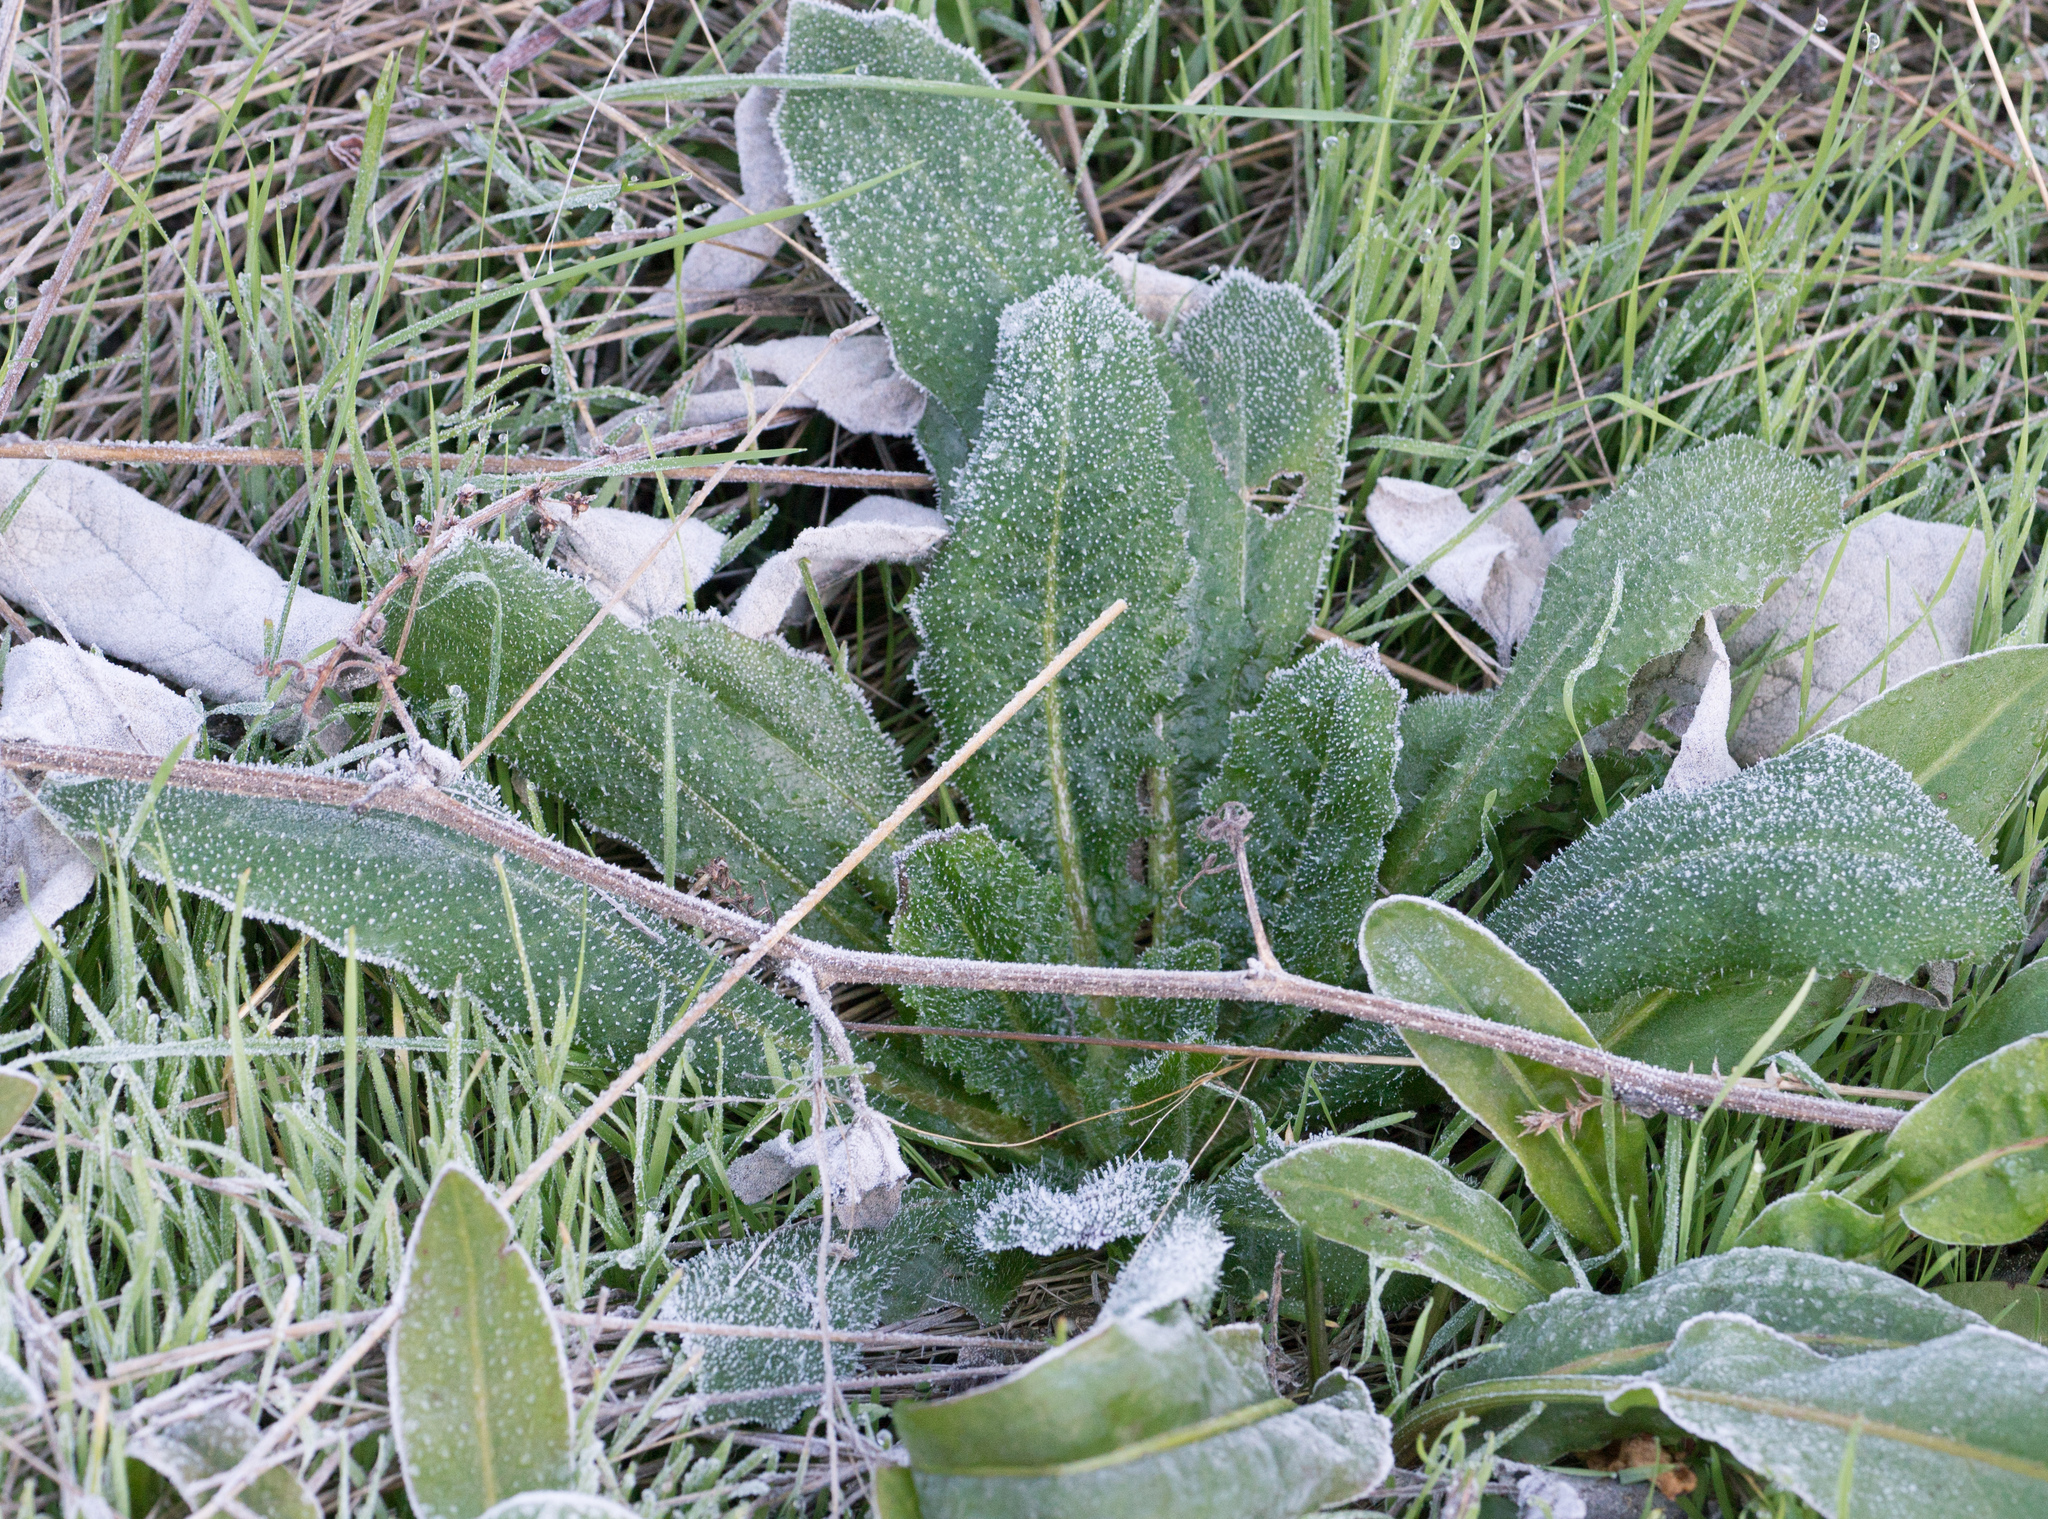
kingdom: Plantae
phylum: Tracheophyta
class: Magnoliopsida
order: Asterales
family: Asteraceae
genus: Helminthotheca
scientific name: Helminthotheca echioides
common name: Ox-tongue
